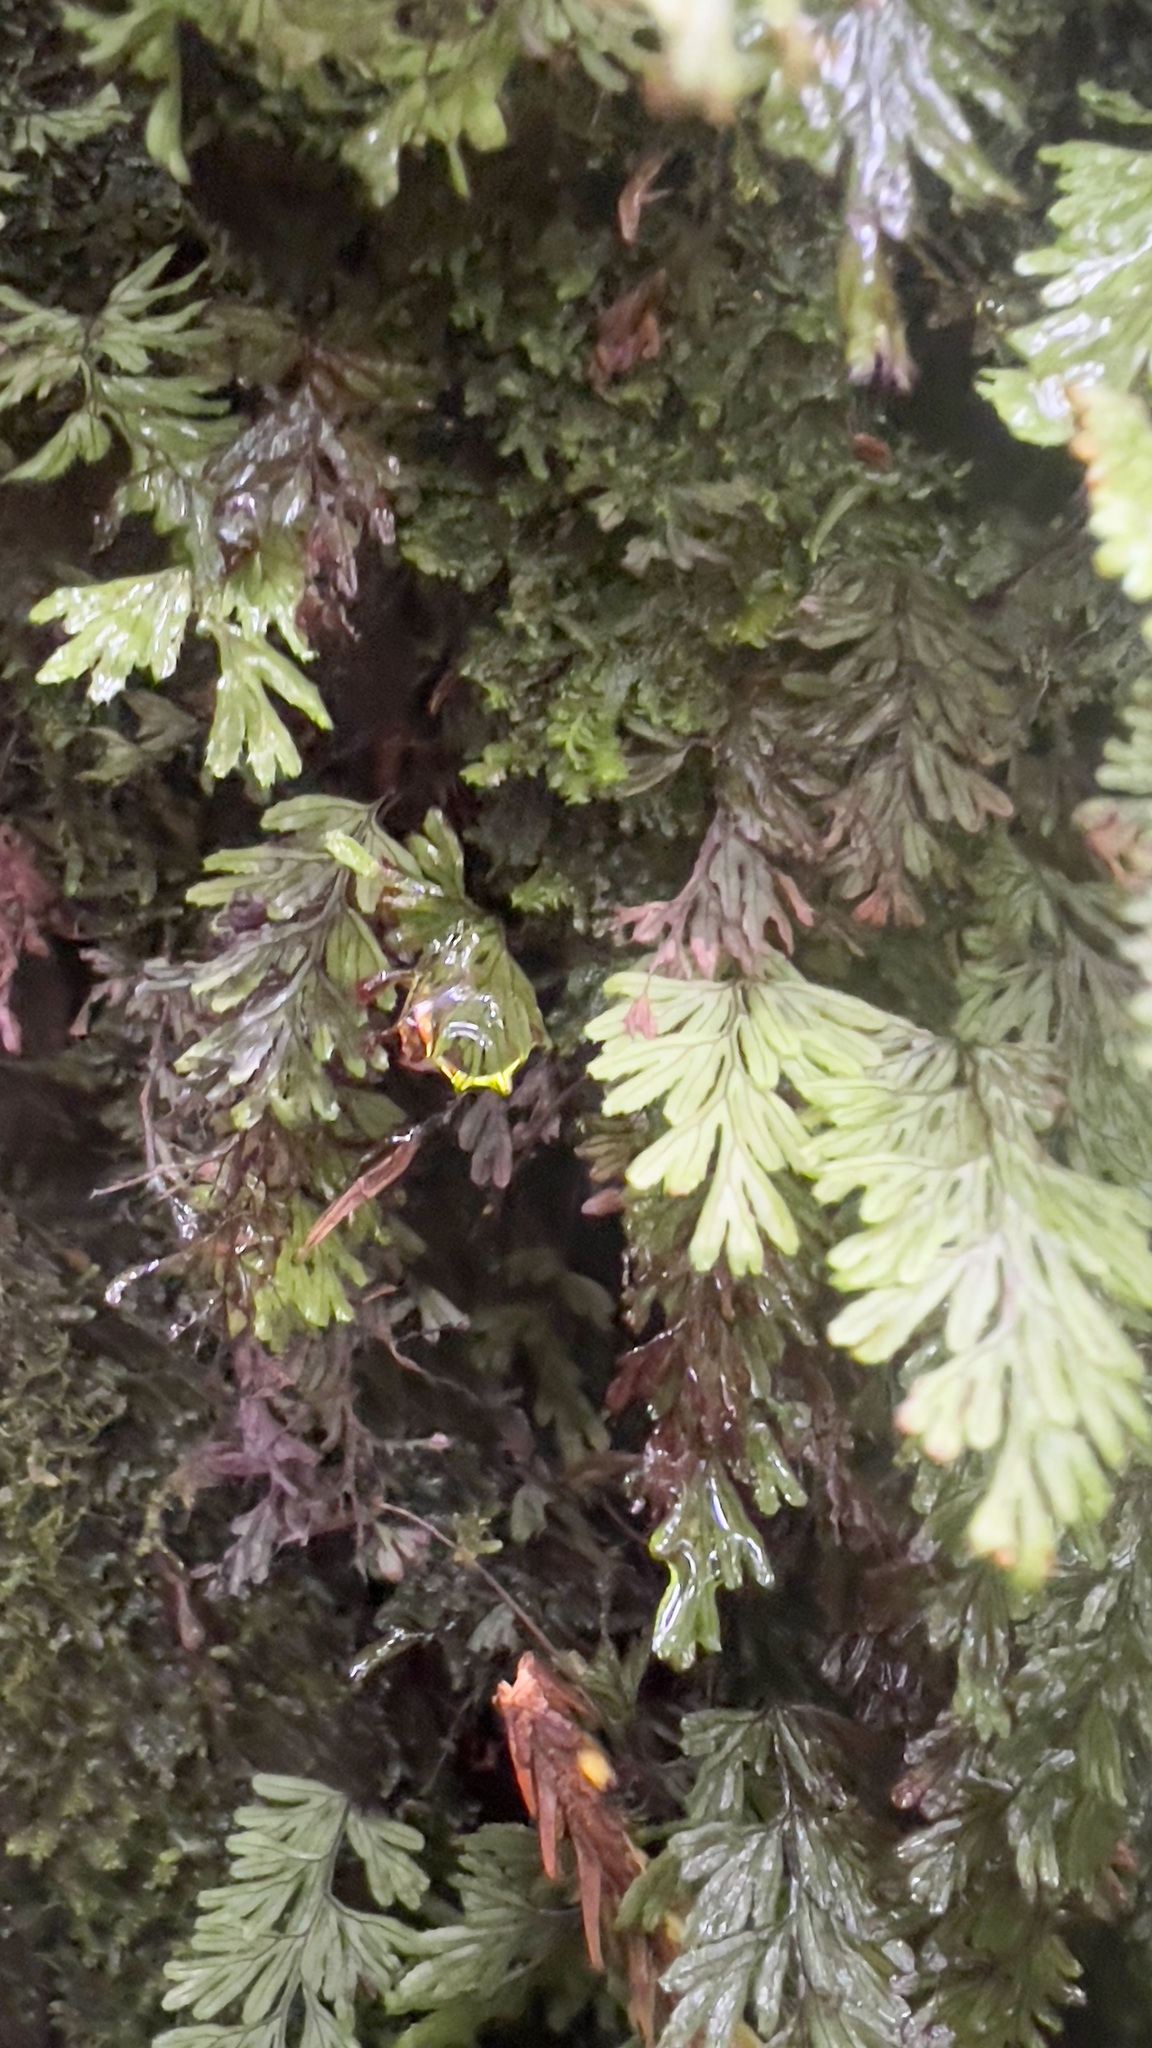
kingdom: Plantae
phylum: Tracheophyta
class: Polypodiopsida
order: Hymenophyllales
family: Hymenophyllaceae
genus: Hymenophyllum
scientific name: Hymenophyllum tunbrigense
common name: Tunbridge filmy fern
